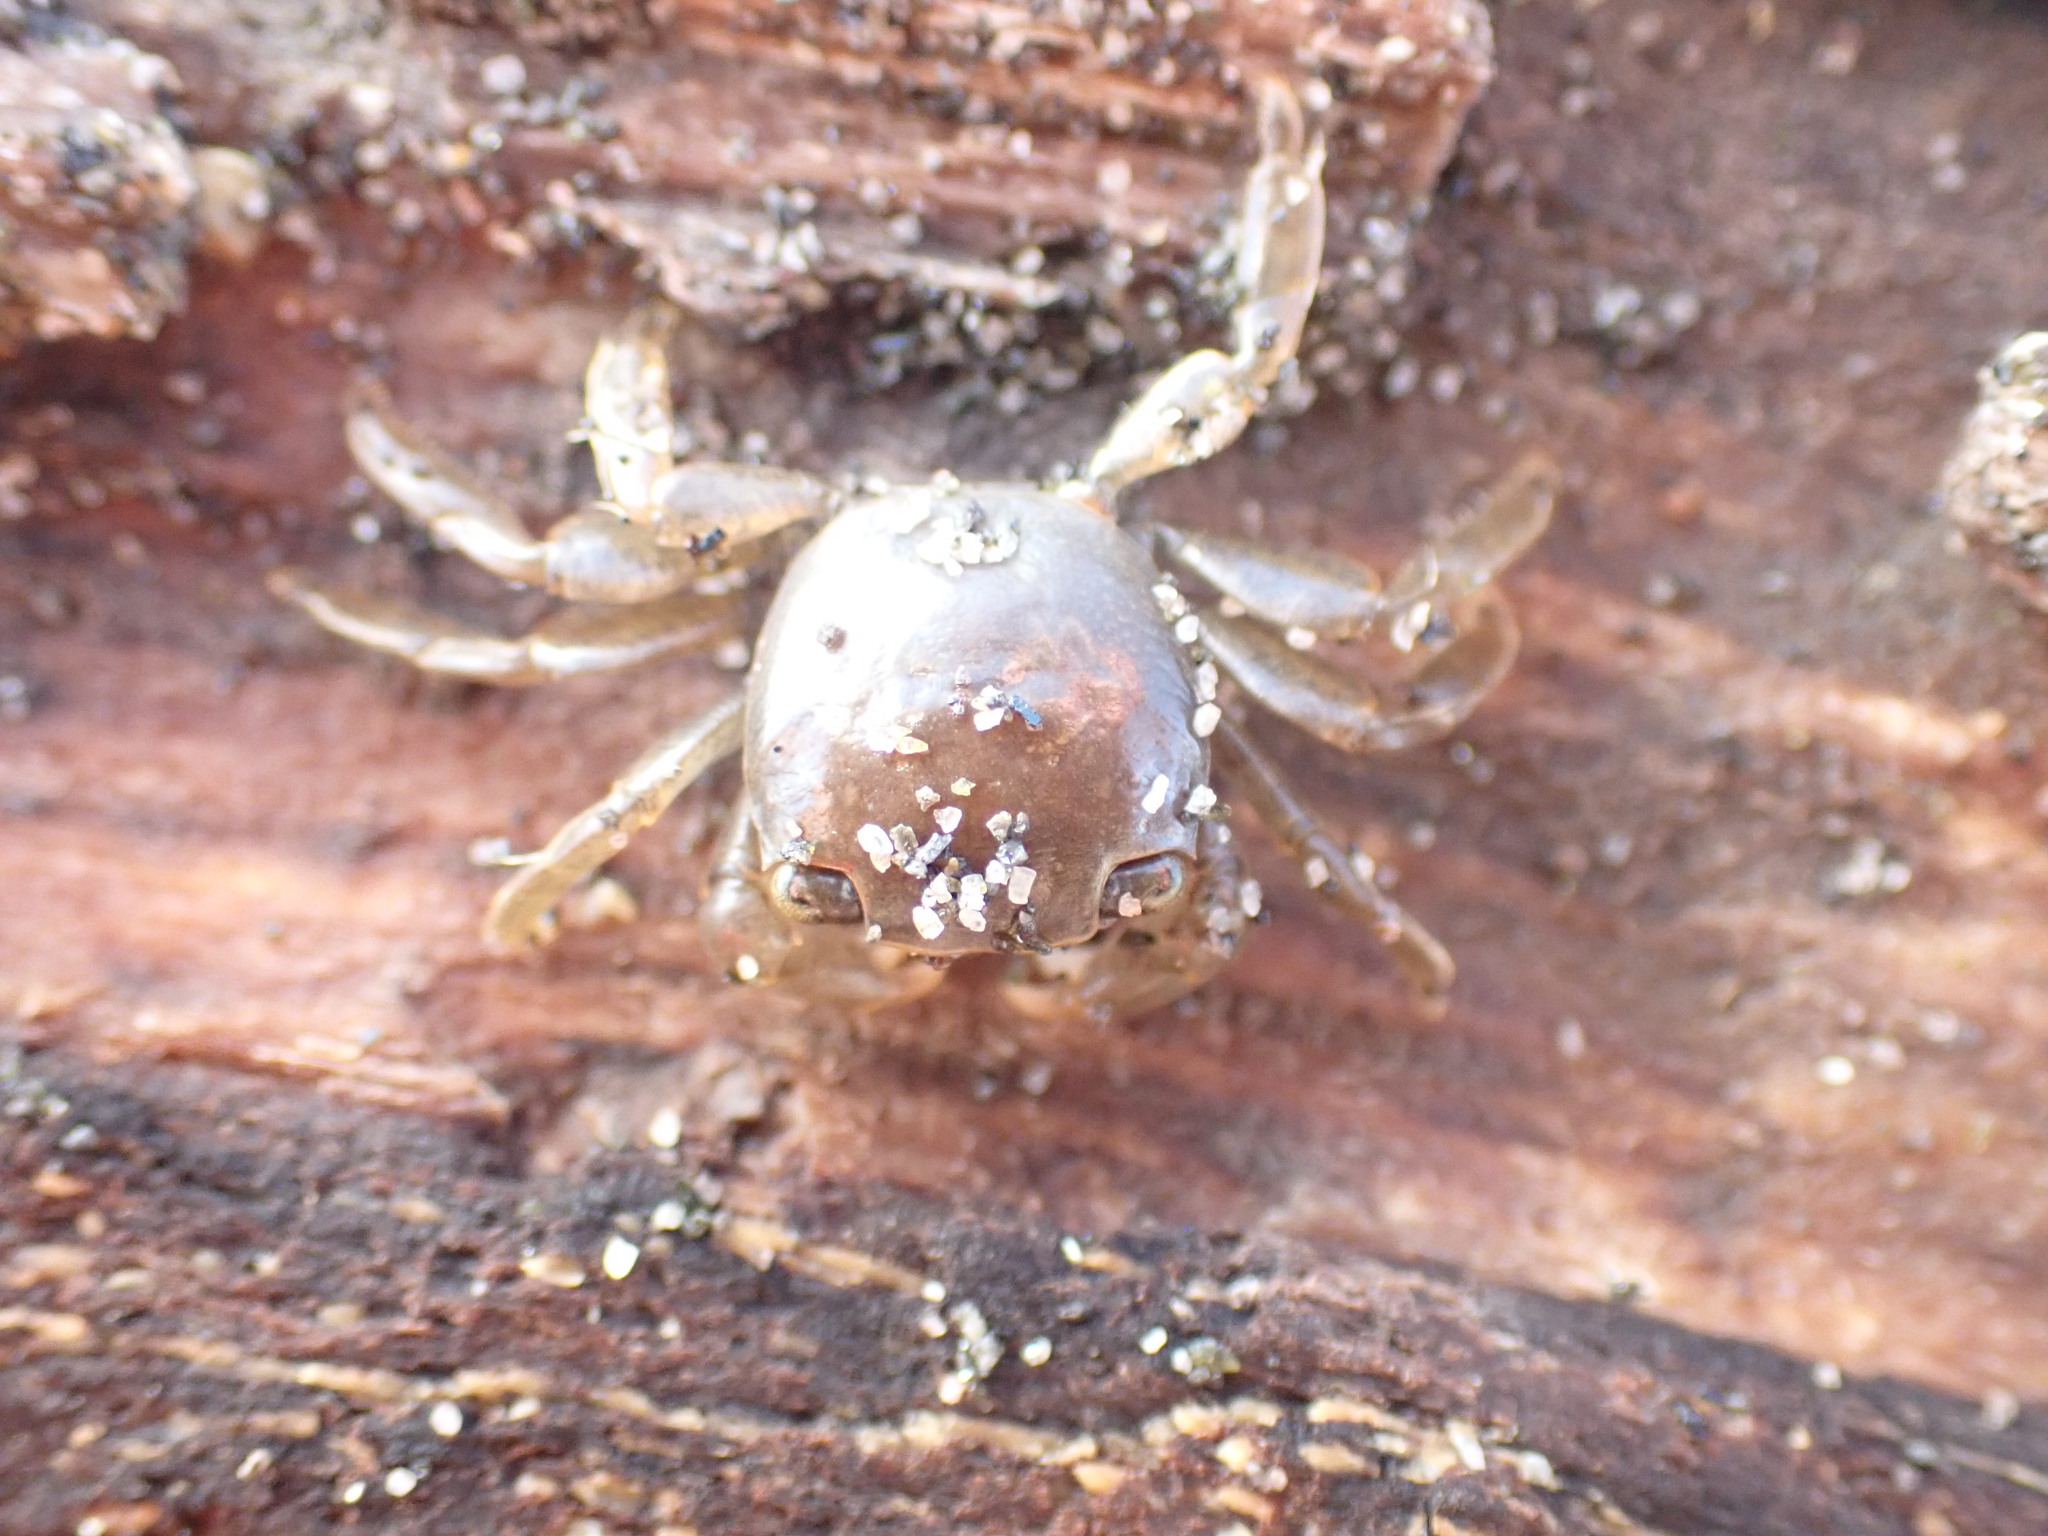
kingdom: Animalia
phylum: Arthropoda
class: Malacostraca
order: Decapoda
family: Grapsidae
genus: Planes
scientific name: Planes minutus
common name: Gulf weed crab
